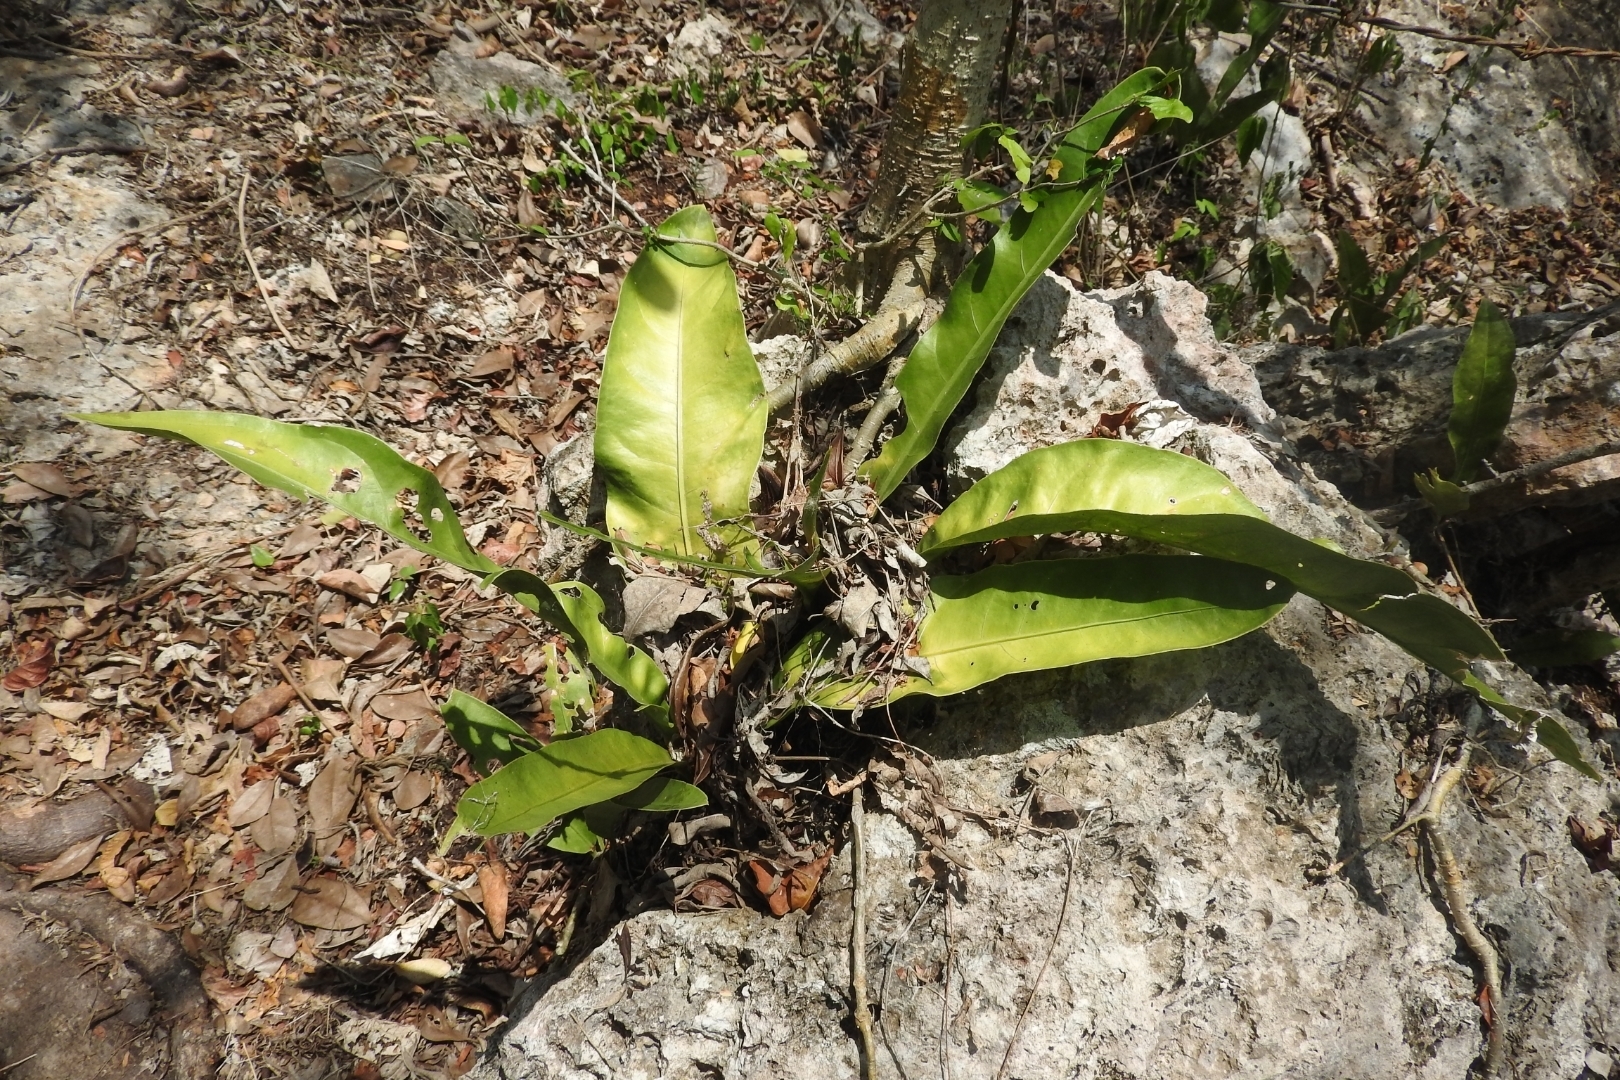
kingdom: Plantae
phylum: Tracheophyta
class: Liliopsida
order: Alismatales
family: Araceae
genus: Anthurium
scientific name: Anthurium schlechtendalii
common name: Laceleaf
